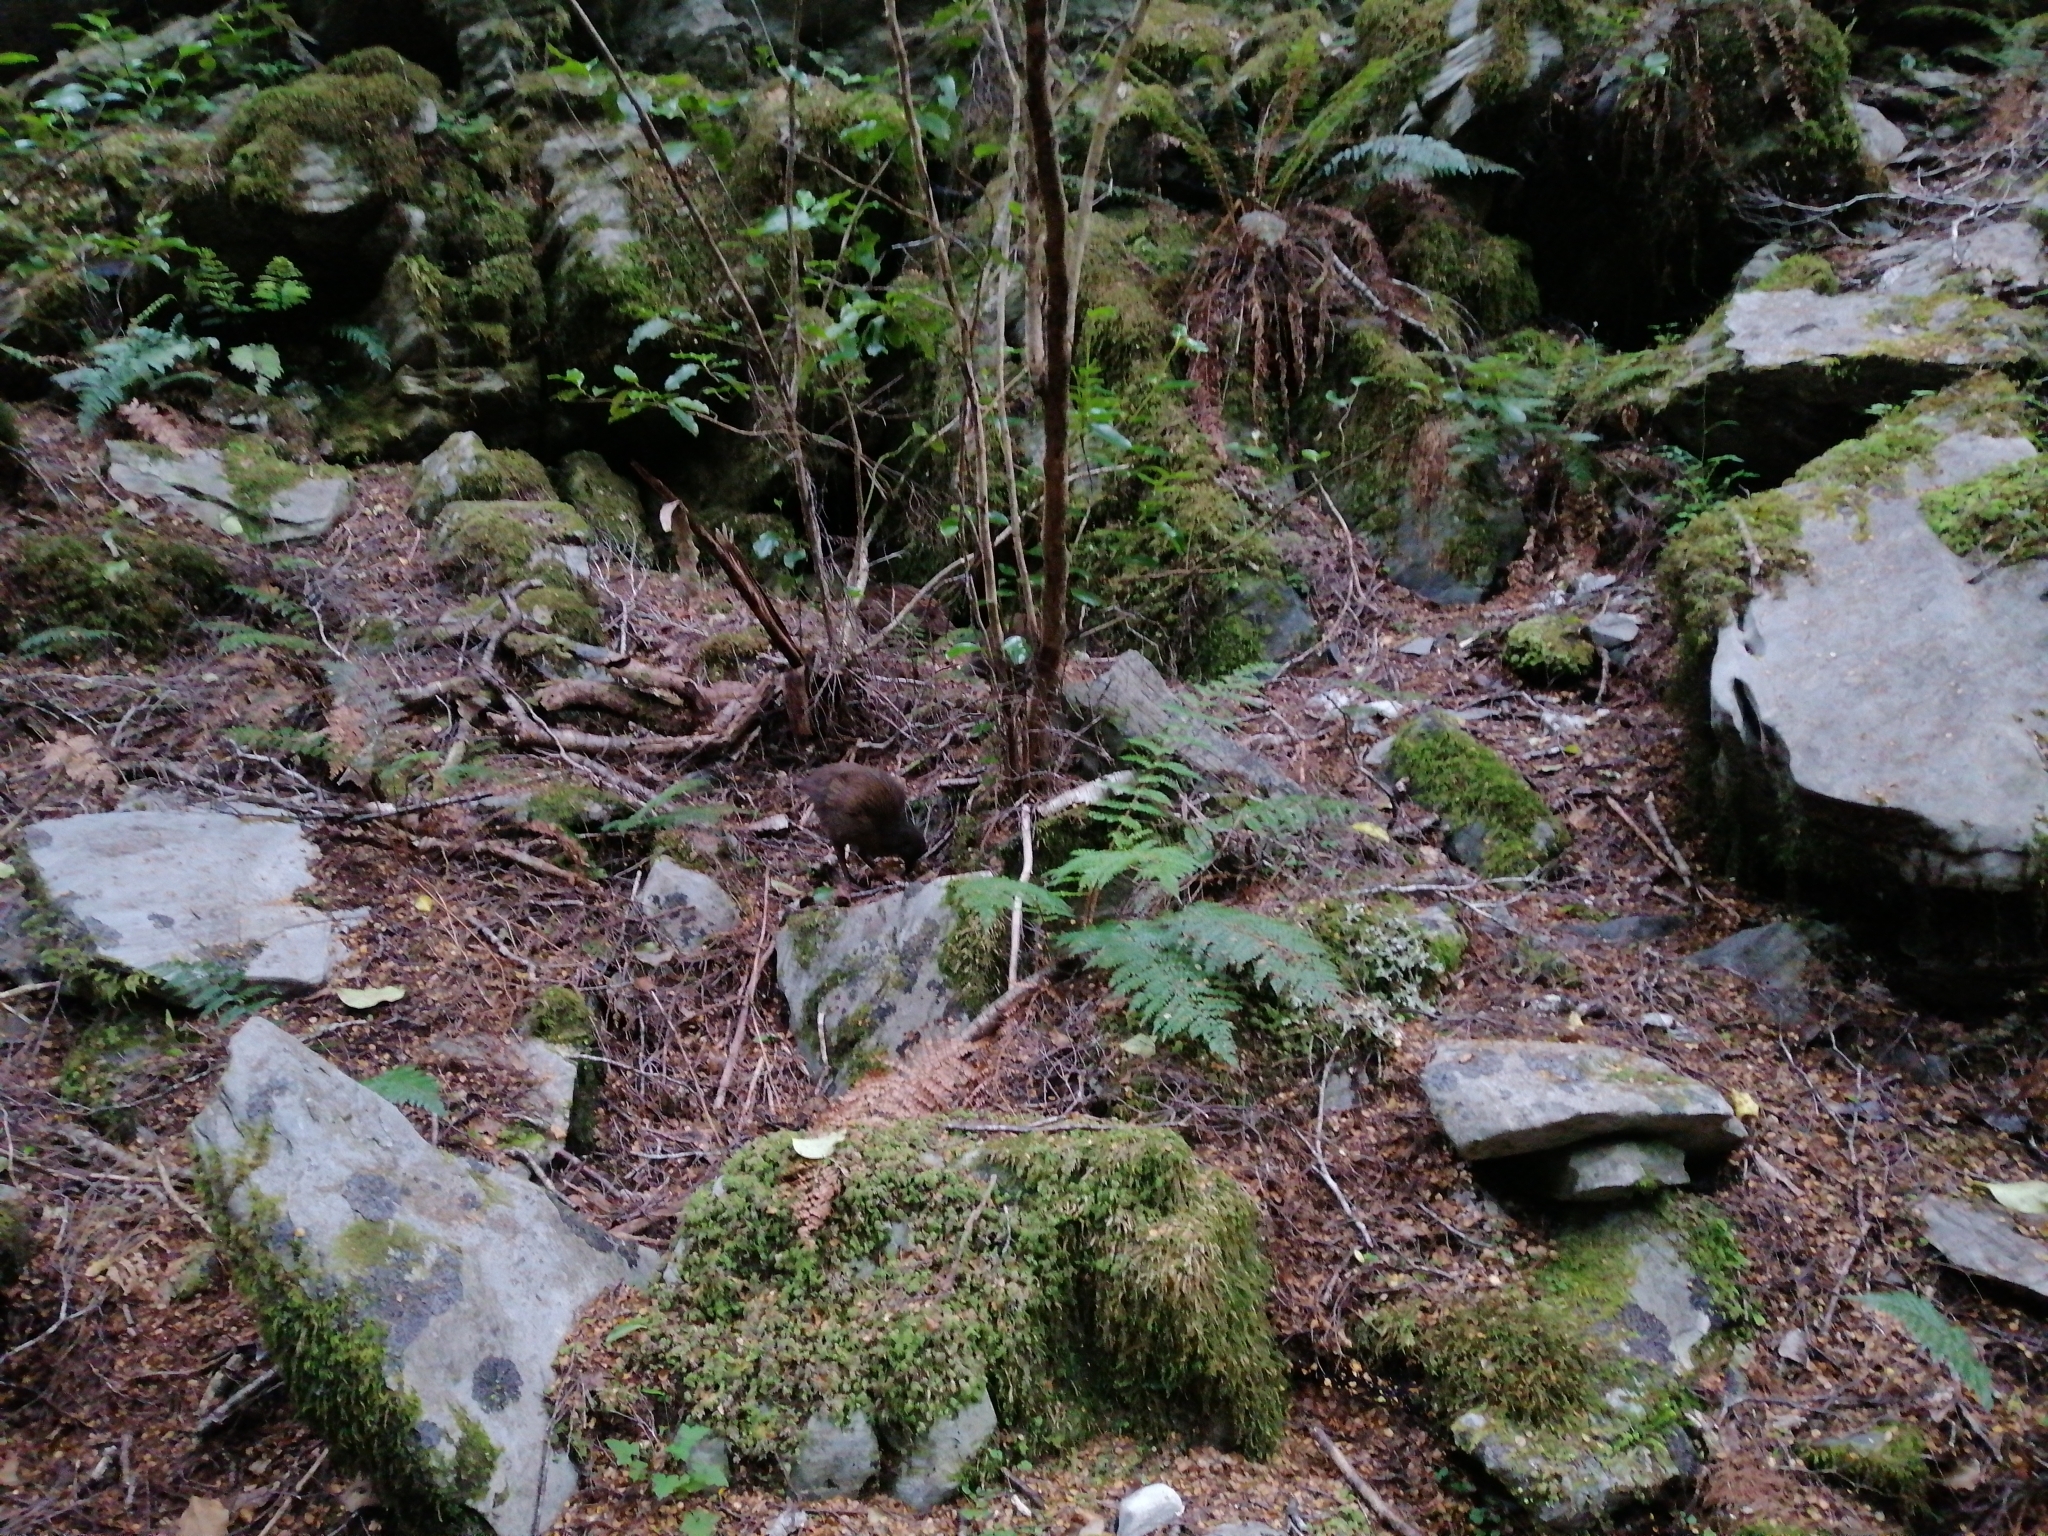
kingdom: Animalia
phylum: Chordata
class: Aves
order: Gruiformes
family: Rallidae
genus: Gallirallus
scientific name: Gallirallus australis
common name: Weka
